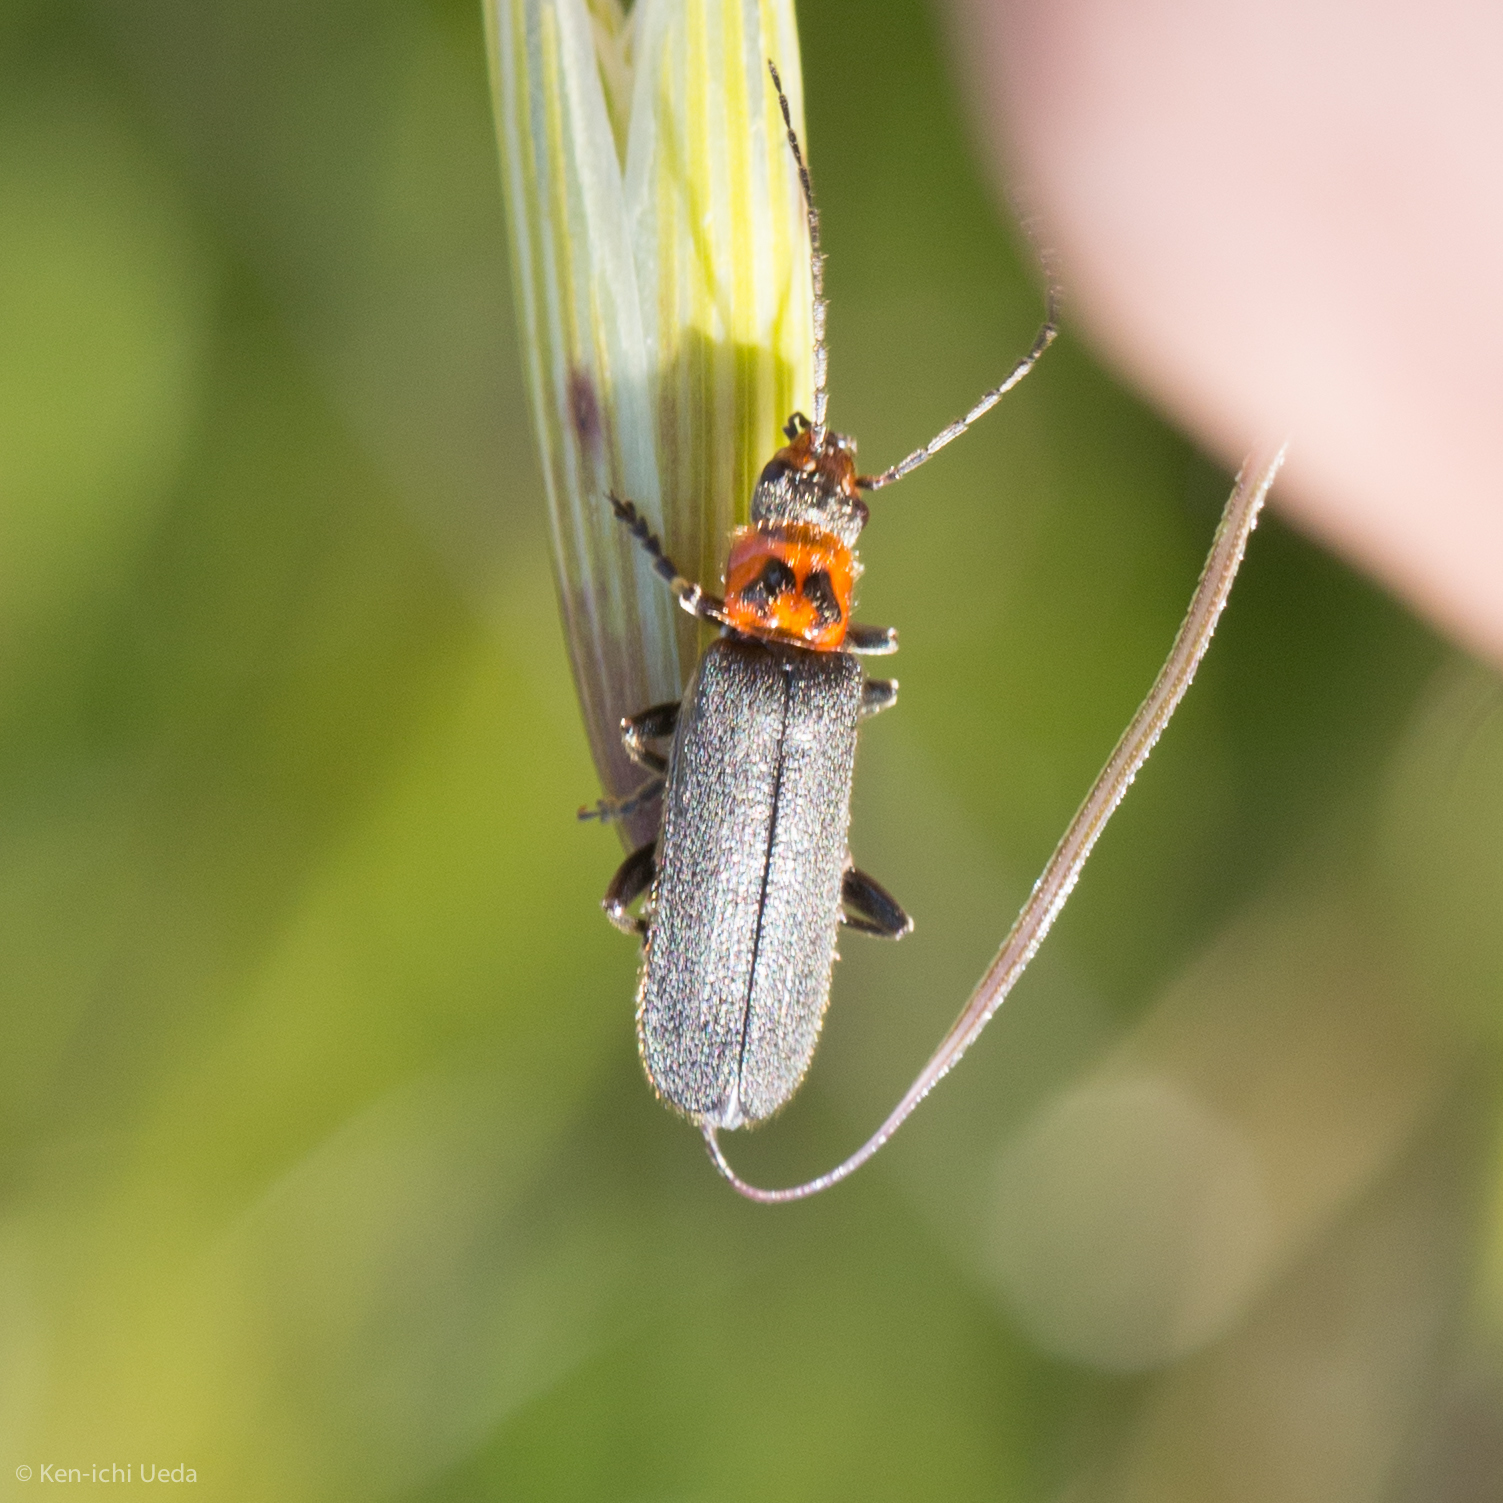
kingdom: Animalia
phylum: Arthropoda
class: Insecta
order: Coleoptera
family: Cantharidae
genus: Cyrtomoptera
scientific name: Cyrtomoptera divisa
